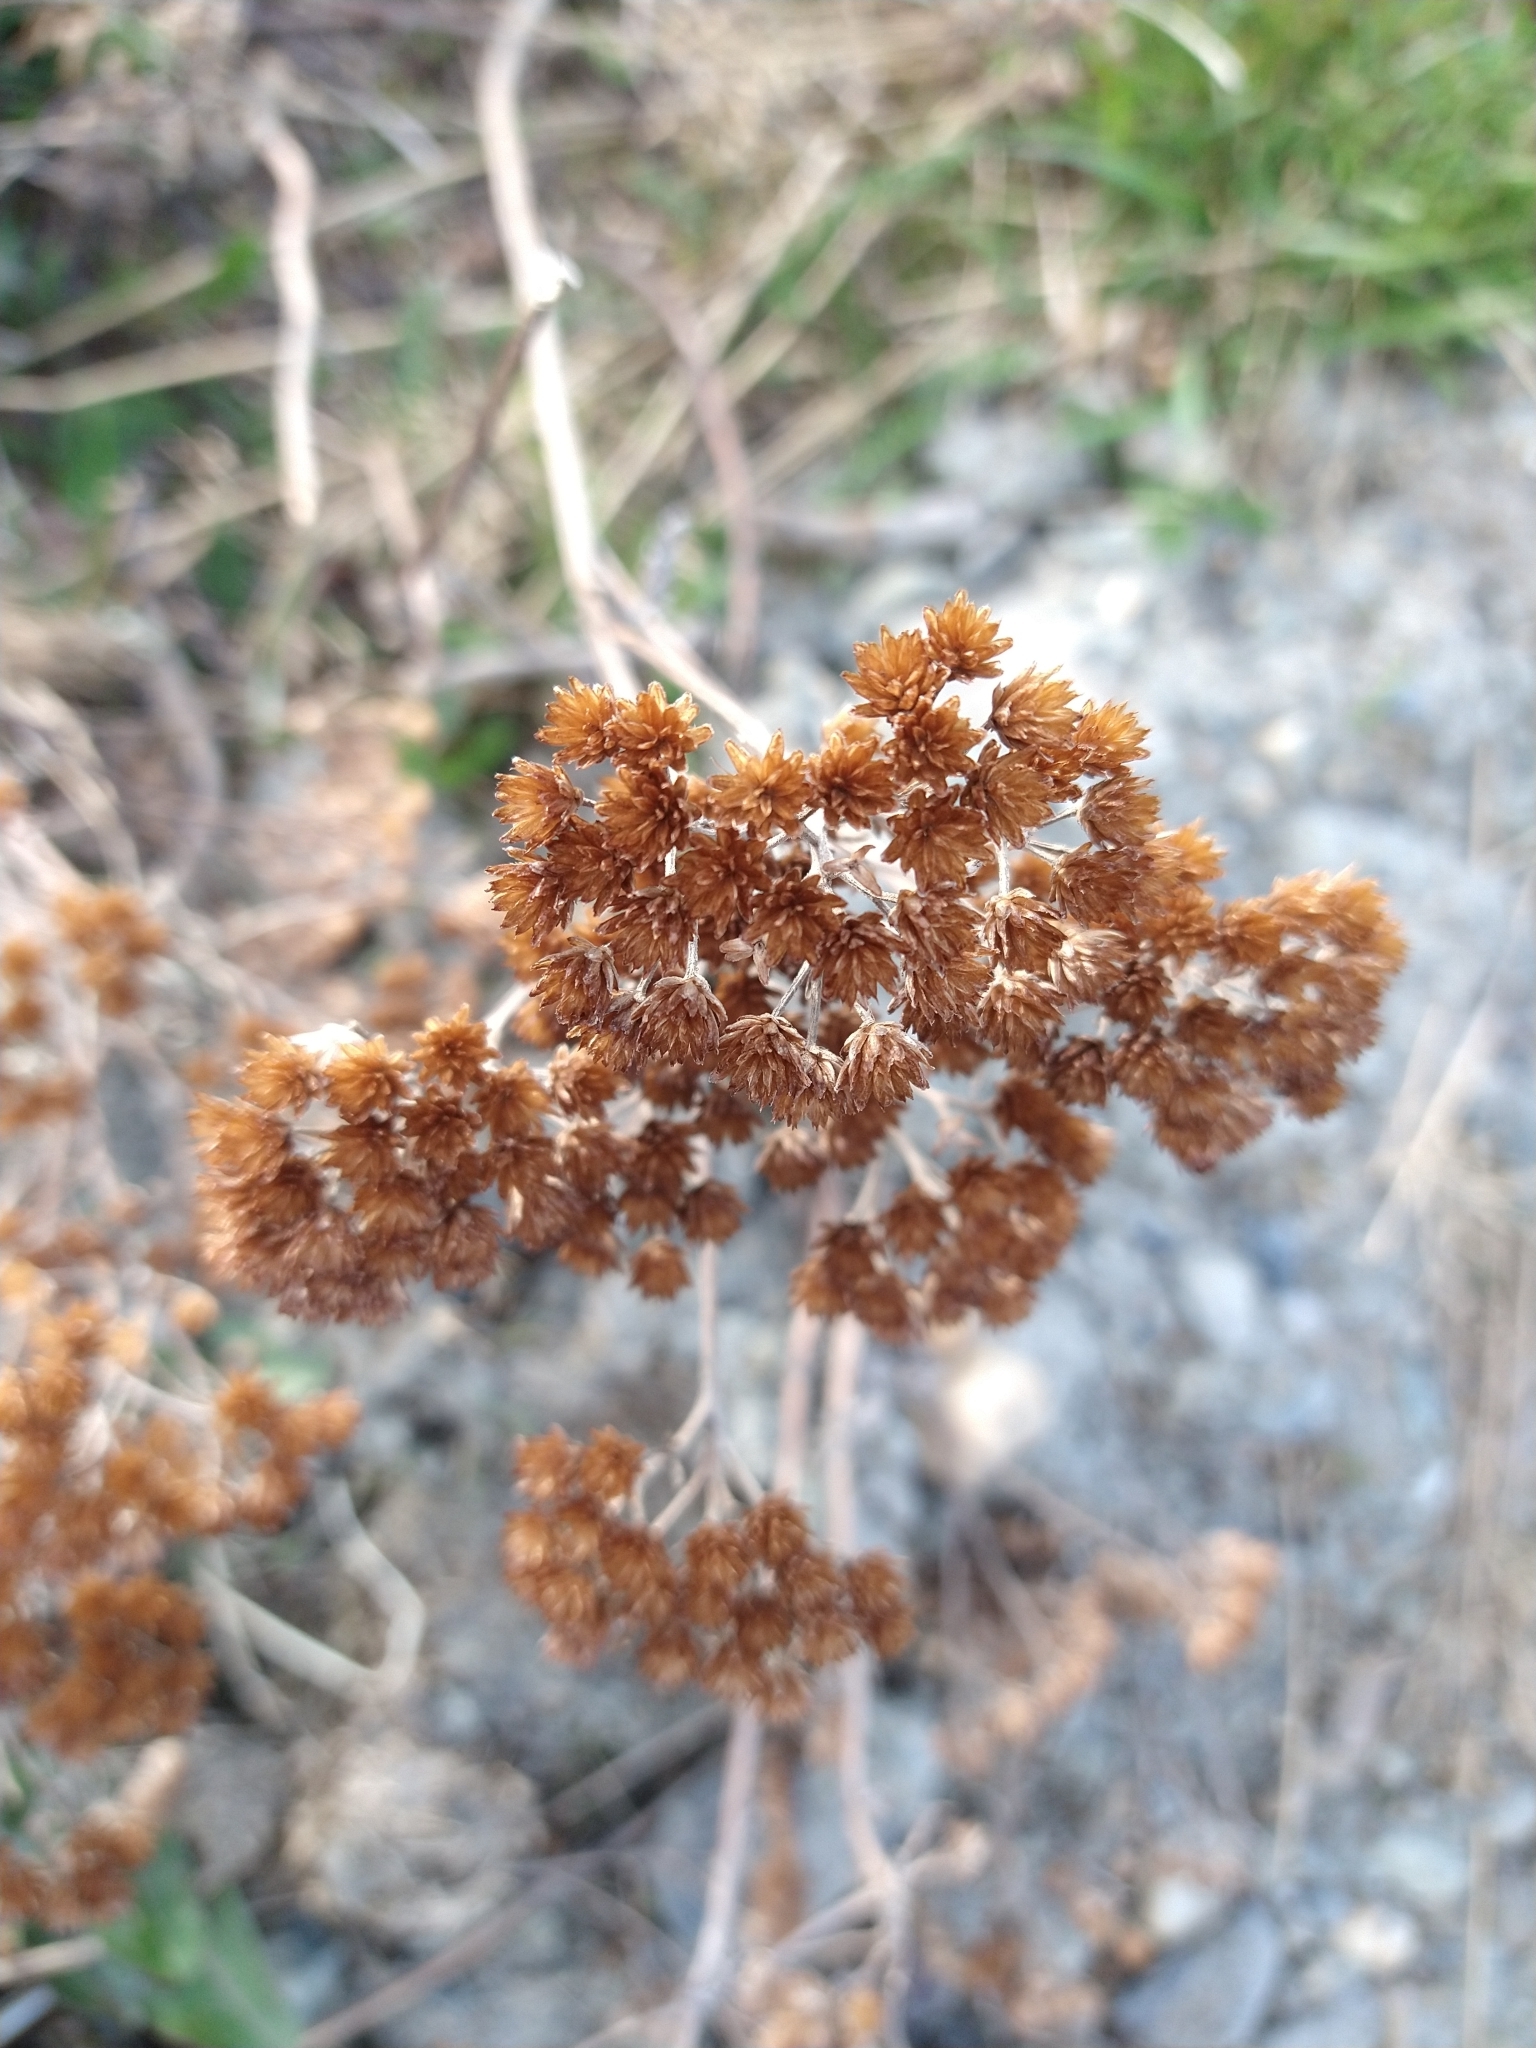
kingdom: Plantae
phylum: Tracheophyta
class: Magnoliopsida
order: Asterales
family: Asteraceae
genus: Achillea
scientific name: Achillea millefolium
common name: Yarrow
